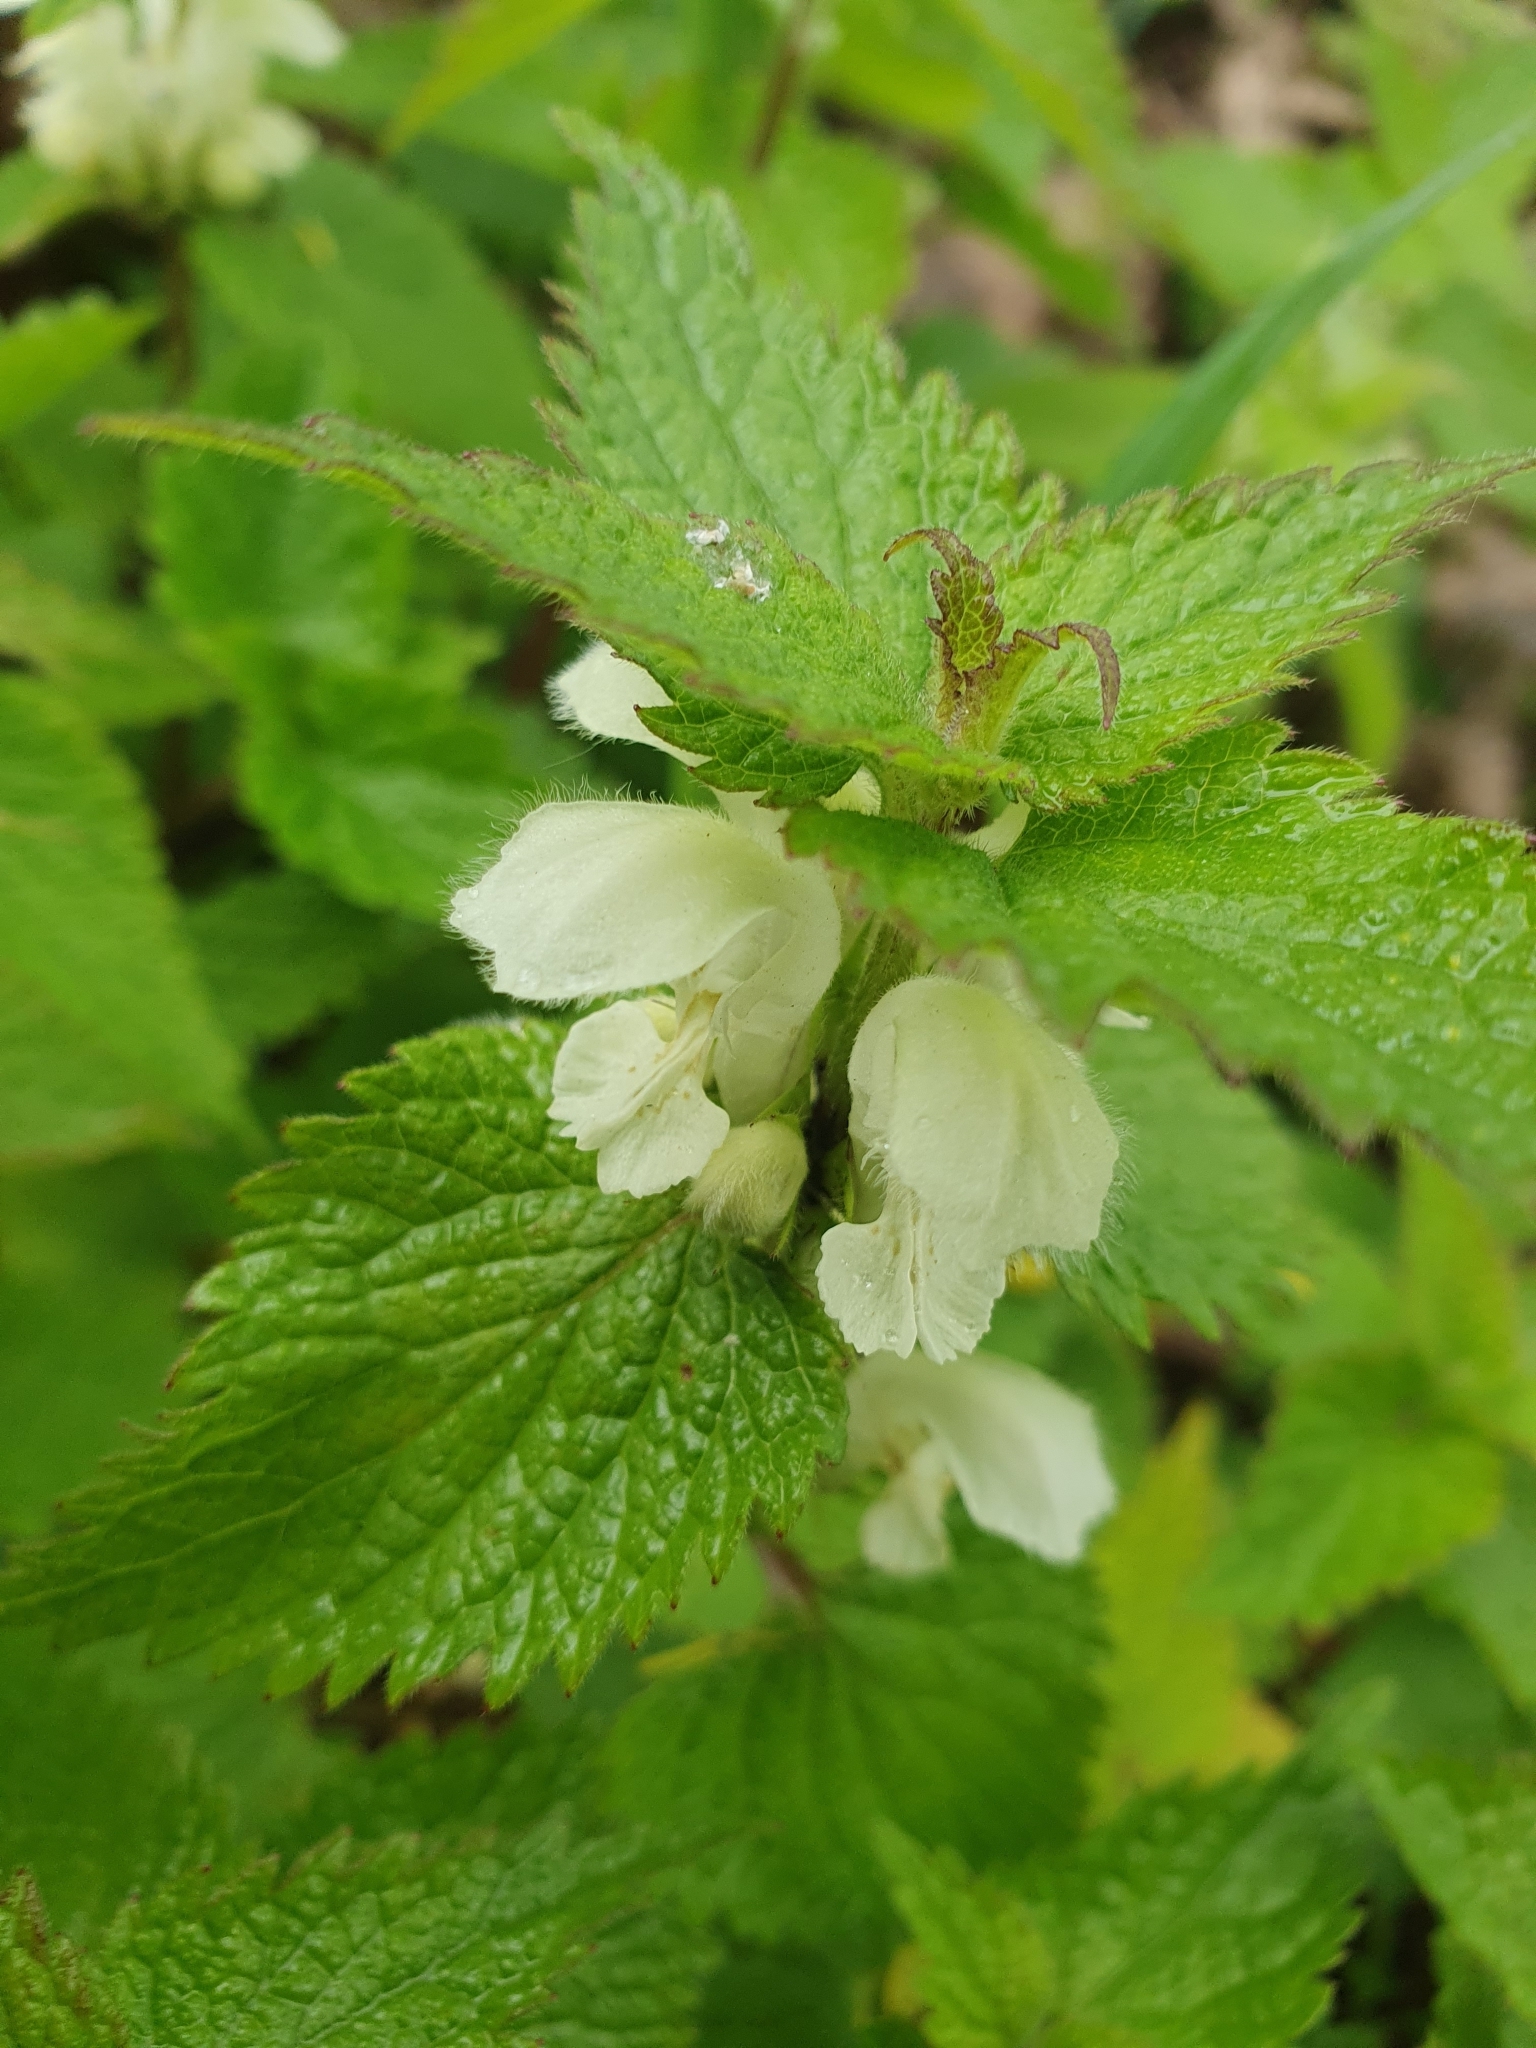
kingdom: Plantae
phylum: Tracheophyta
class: Magnoliopsida
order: Lamiales
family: Lamiaceae
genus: Lamium
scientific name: Lamium album
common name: White dead-nettle
